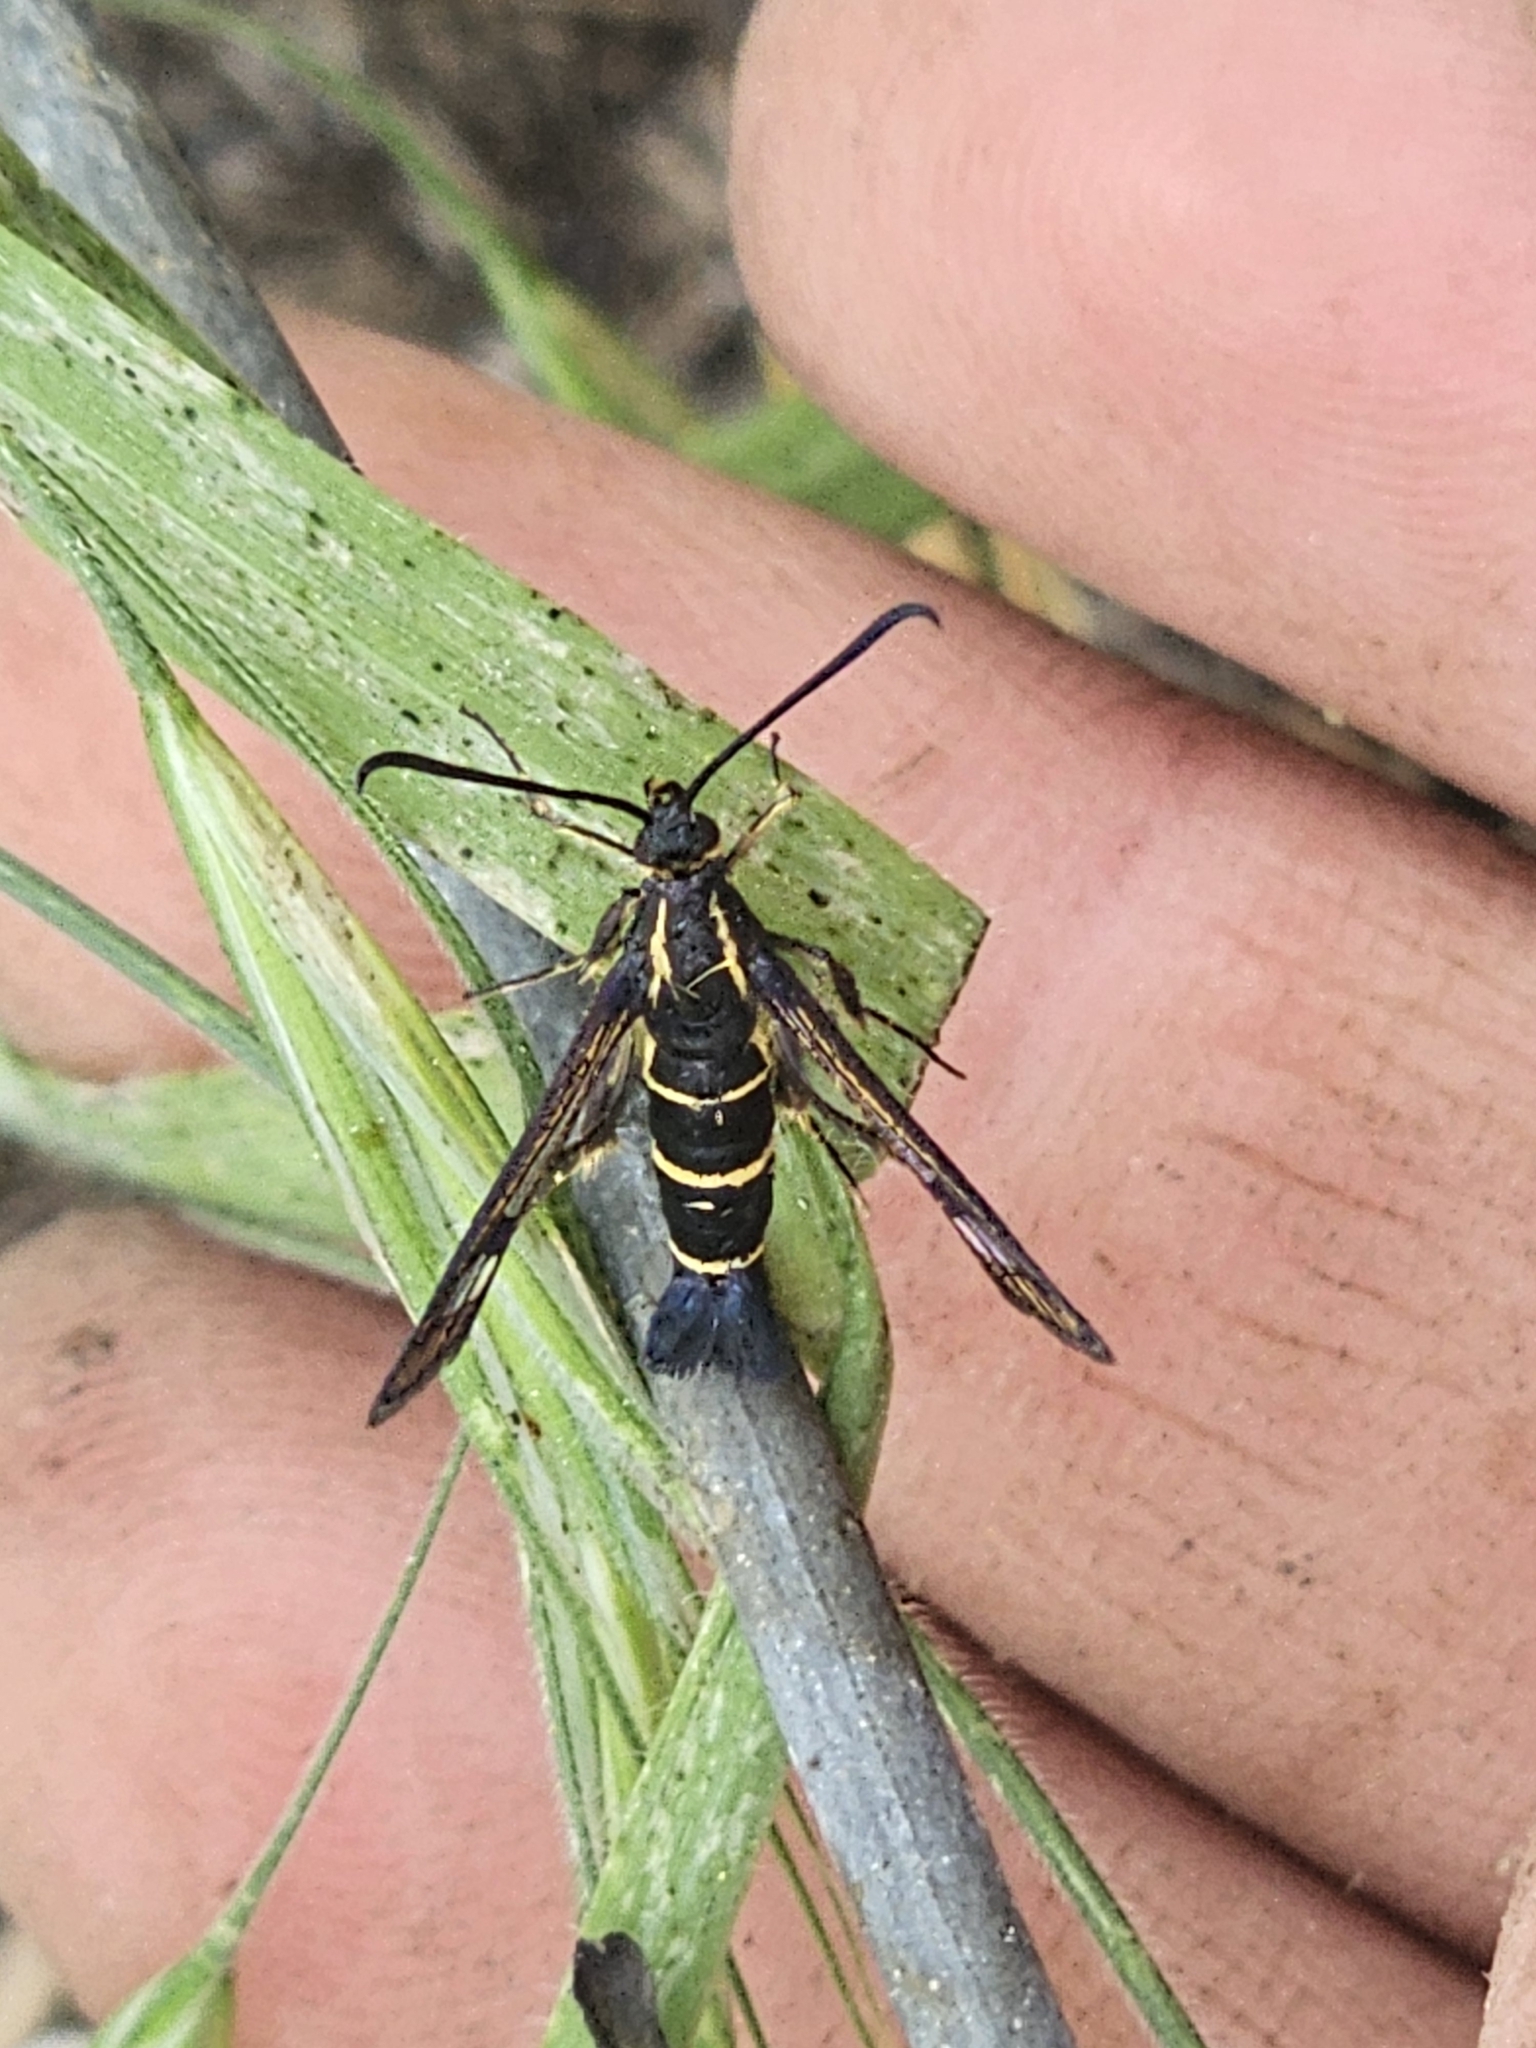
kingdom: Animalia
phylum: Arthropoda
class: Insecta
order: Lepidoptera
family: Sesiidae
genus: Synanthedon
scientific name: Synanthedon tipuliformis
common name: Currant clearwing
